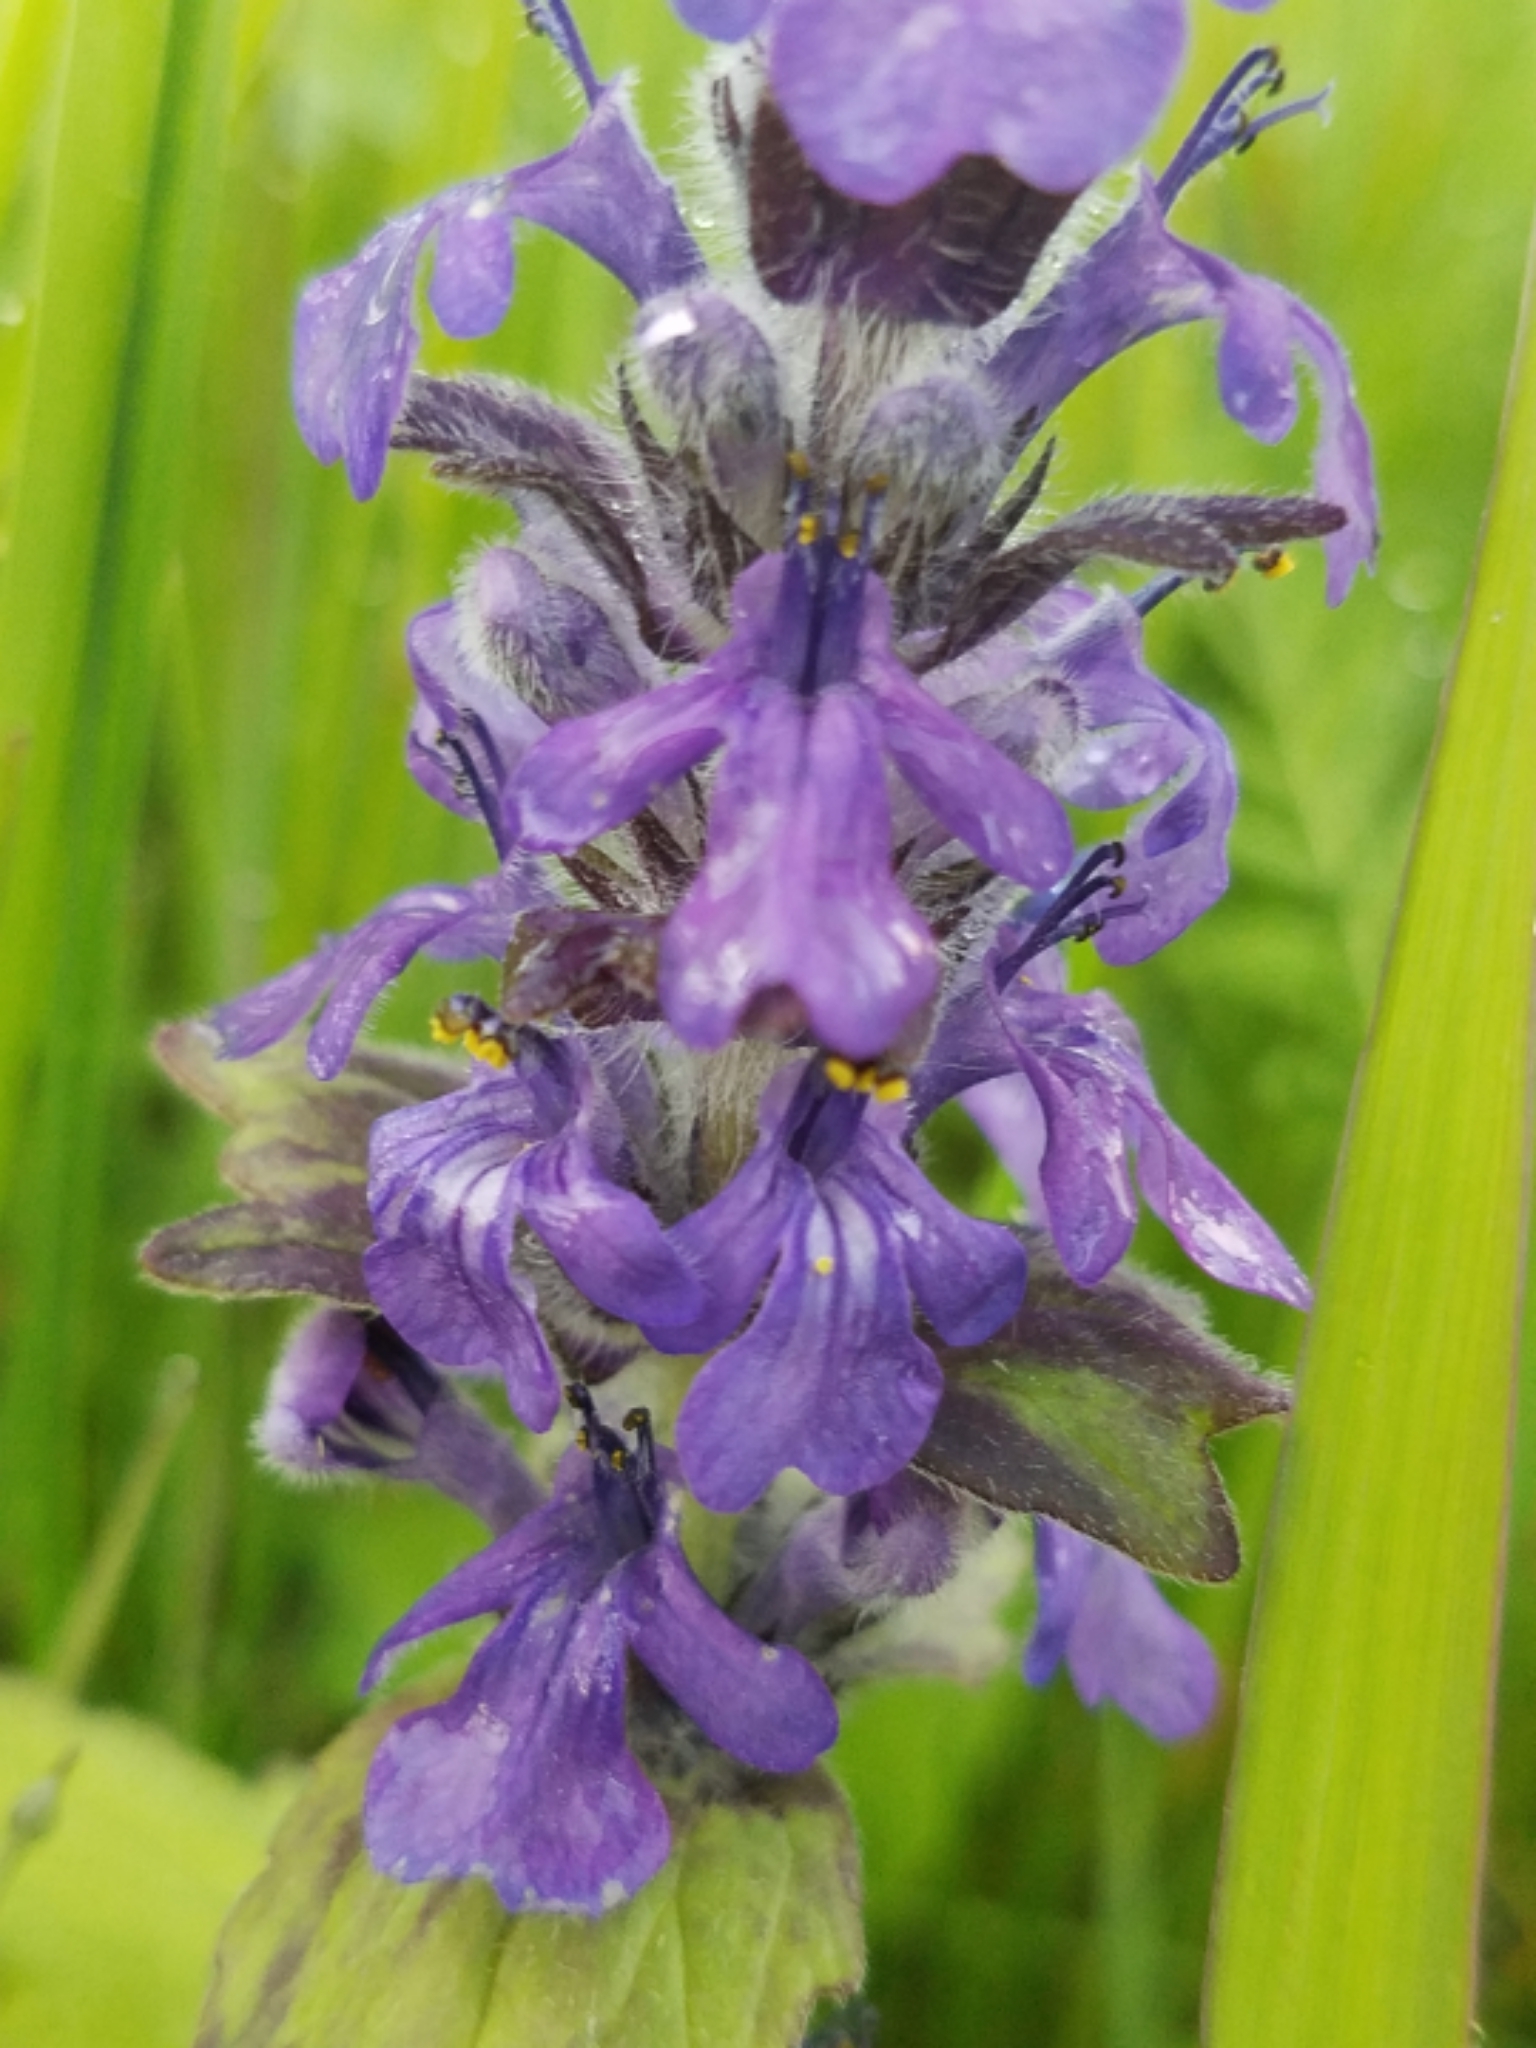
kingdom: Plantae
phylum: Tracheophyta
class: Magnoliopsida
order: Lamiales
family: Lamiaceae
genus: Ajuga
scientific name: Ajuga genevensis
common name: Blue bugle
